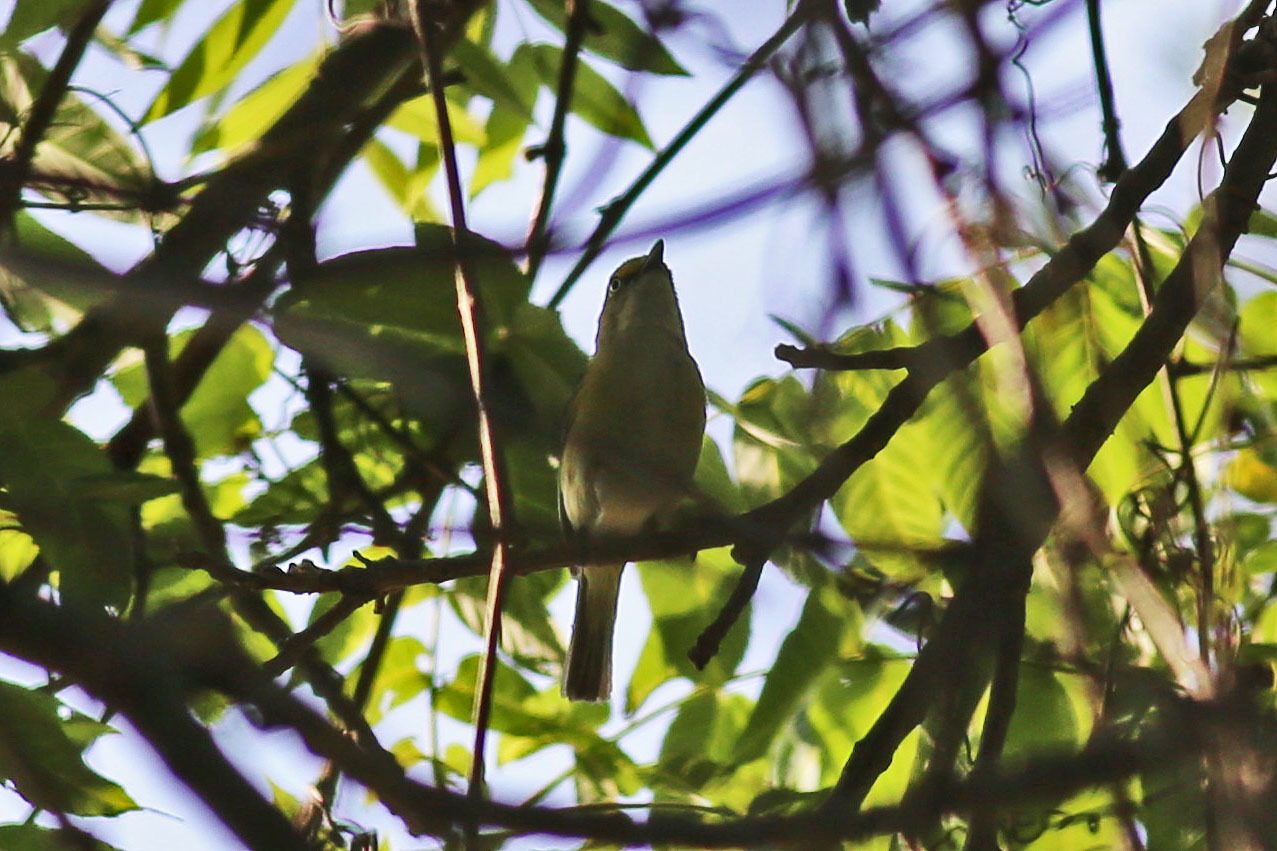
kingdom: Animalia
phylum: Chordata
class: Aves
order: Passeriformes
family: Vireonidae
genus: Vireo
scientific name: Vireo griseus
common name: White-eyed vireo
